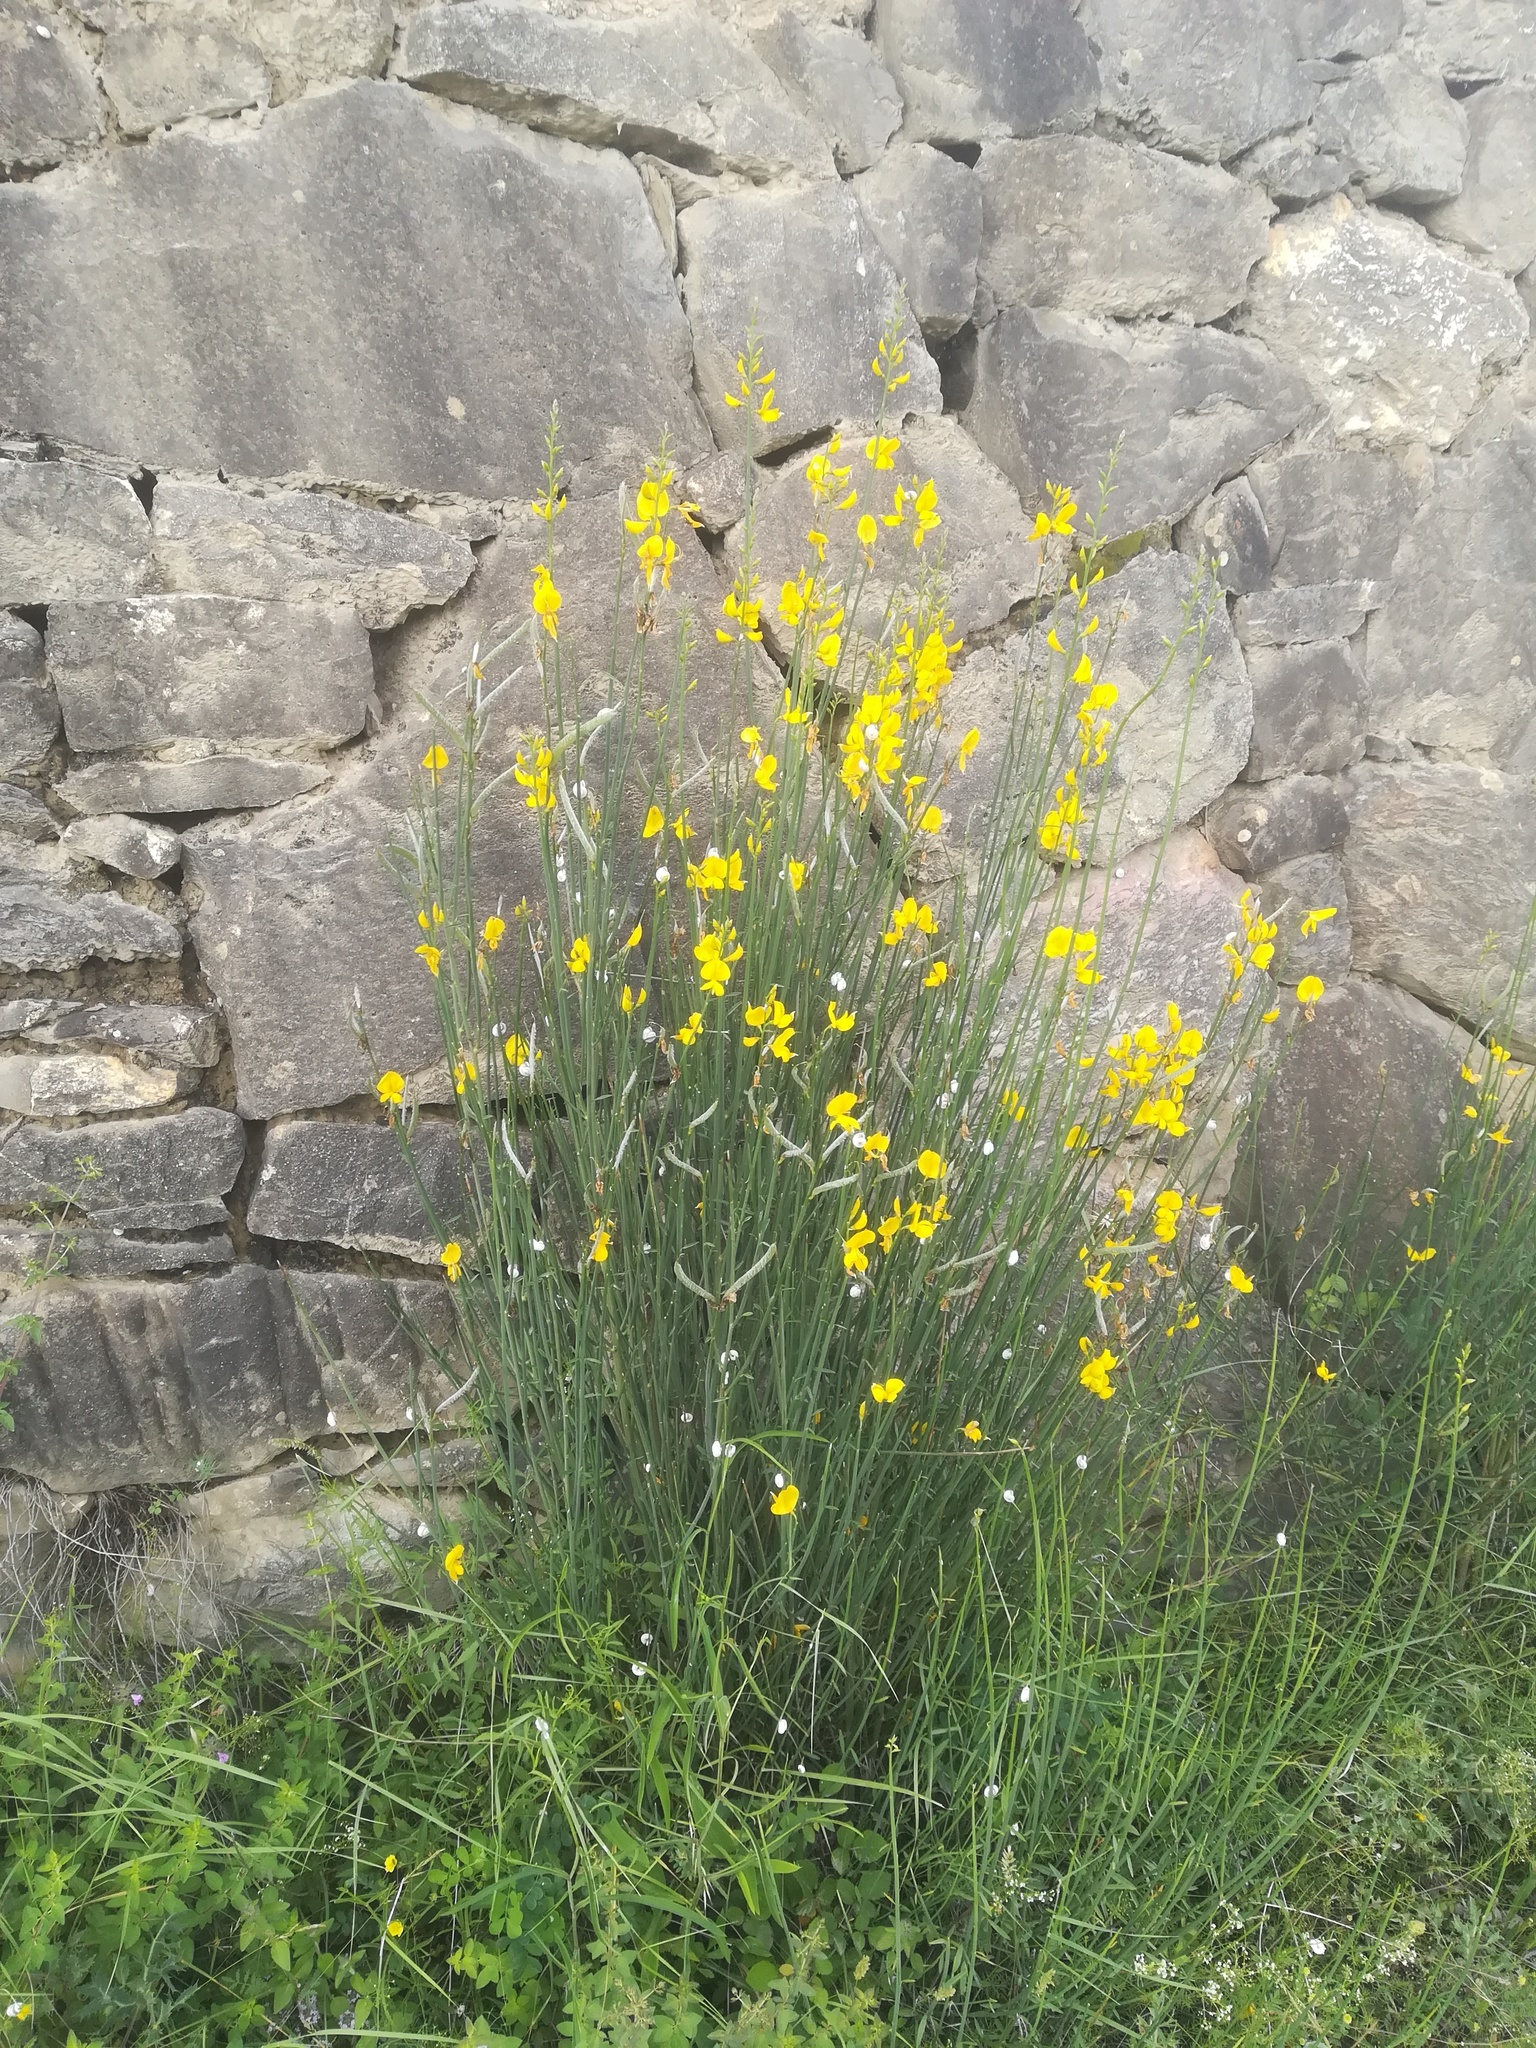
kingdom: Plantae
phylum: Tracheophyta
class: Magnoliopsida
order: Fabales
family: Fabaceae
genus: Spartium
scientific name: Spartium junceum
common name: Spanish broom
